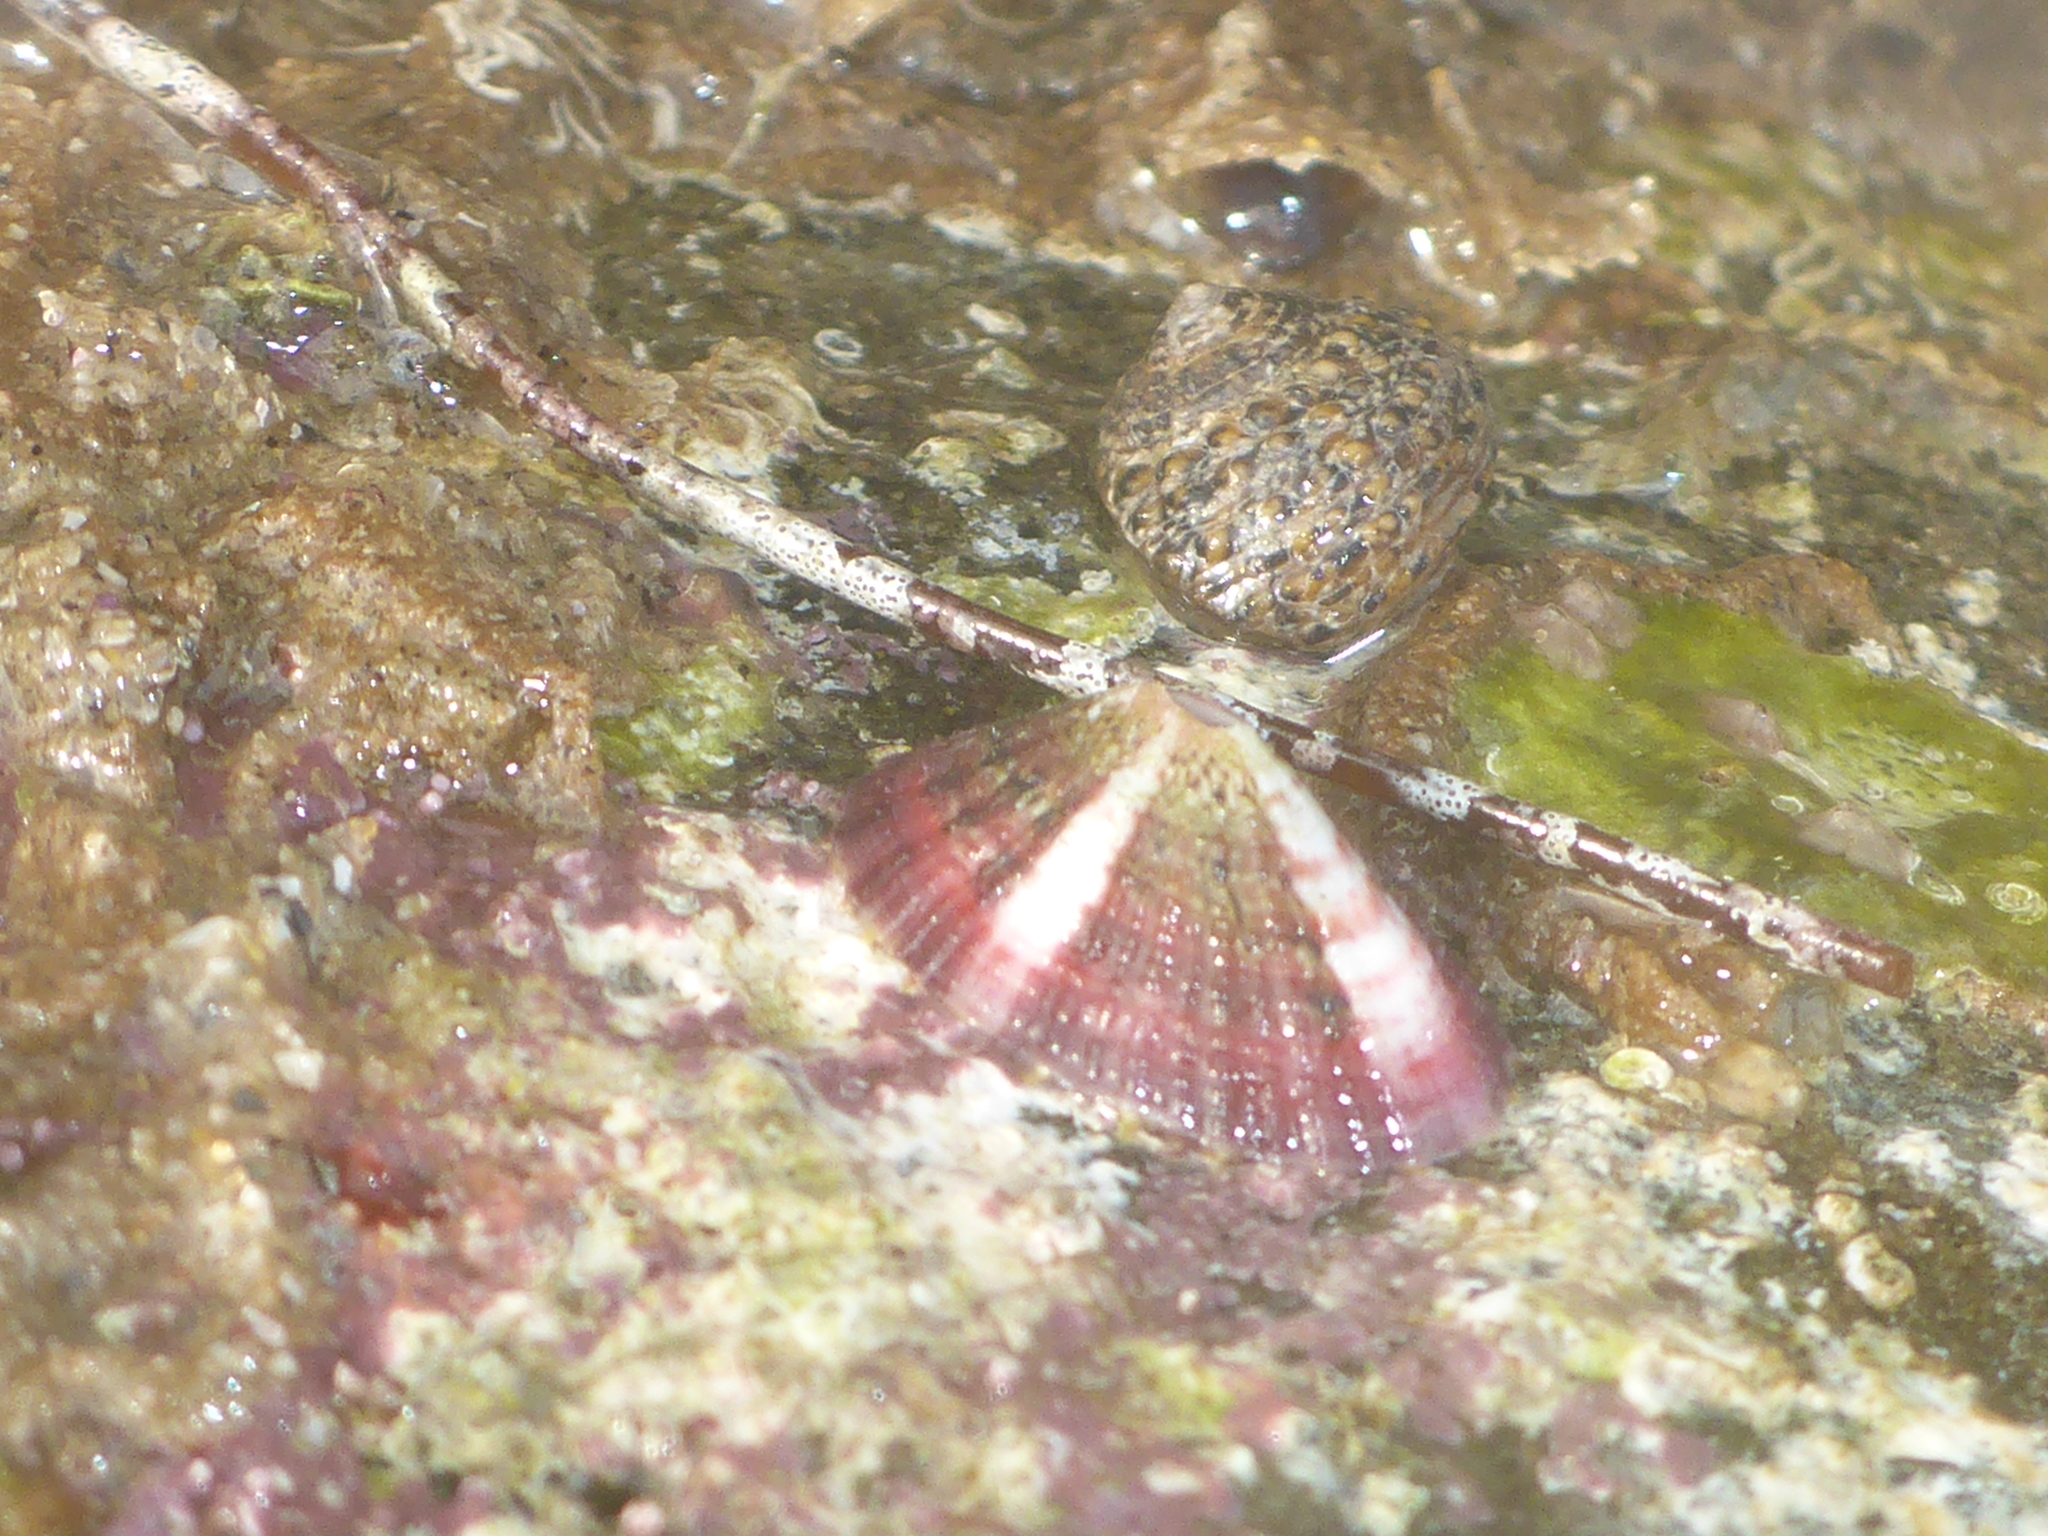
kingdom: Animalia
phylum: Mollusca
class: Gastropoda
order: Lepetellida
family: Fissurellidae
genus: Fissurella
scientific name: Fissurella volcano
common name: Volcano keyhole limpet
